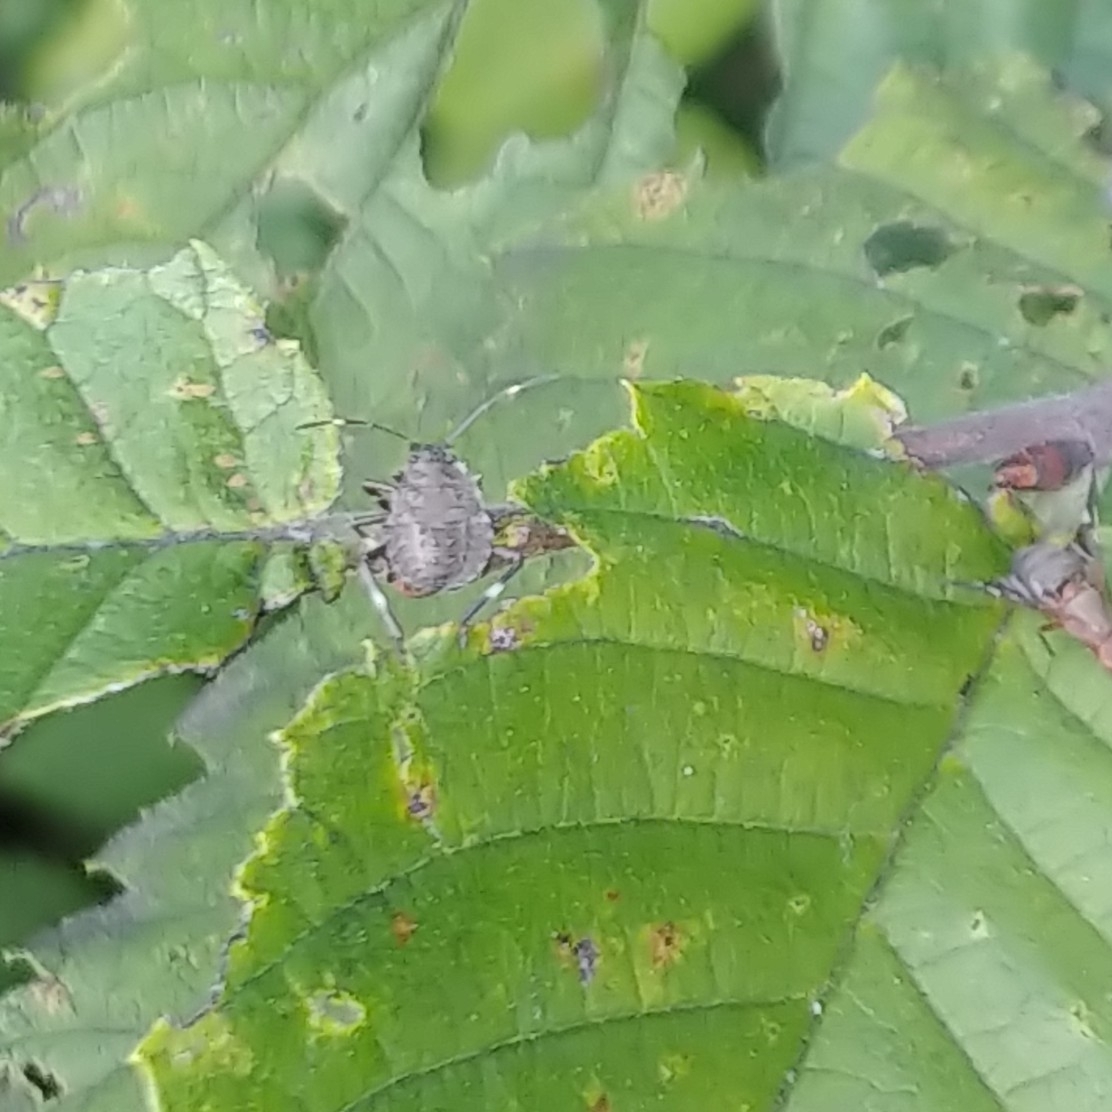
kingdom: Animalia
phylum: Arthropoda
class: Insecta
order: Hemiptera
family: Pentatomidae
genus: Halyomorpha
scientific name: Halyomorpha halys
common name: Brown marmorated stink bug
